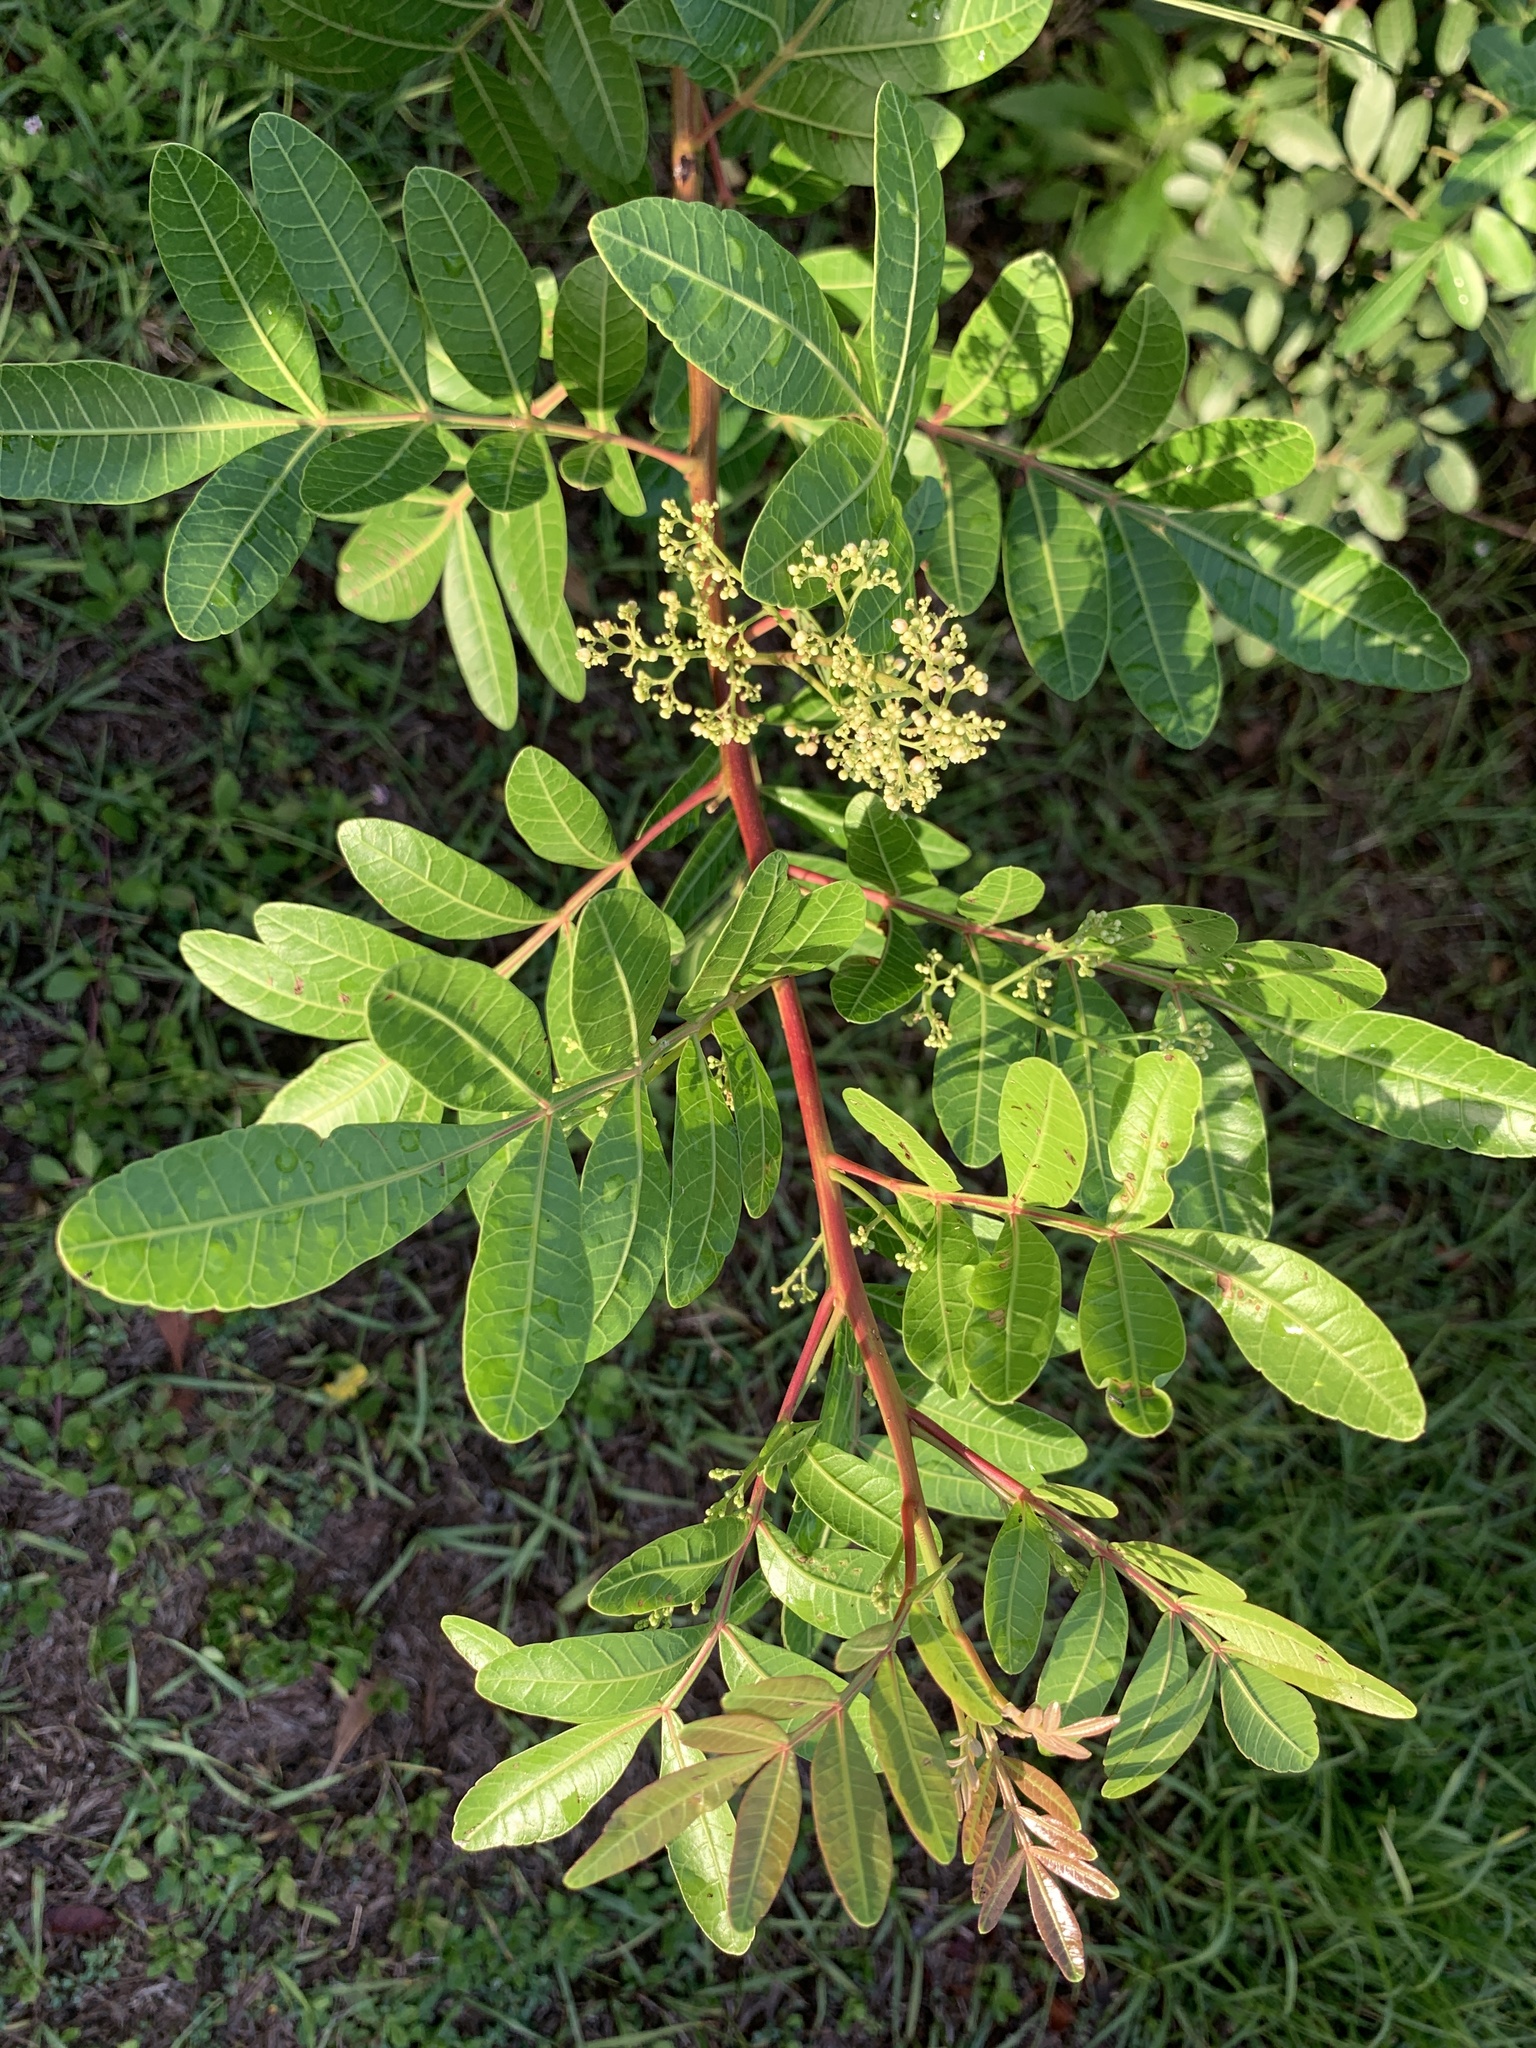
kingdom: Plantae
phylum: Tracheophyta
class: Magnoliopsida
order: Sapindales
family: Anacardiaceae
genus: Schinus
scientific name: Schinus terebinthifolia
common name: Brazilian peppertree
